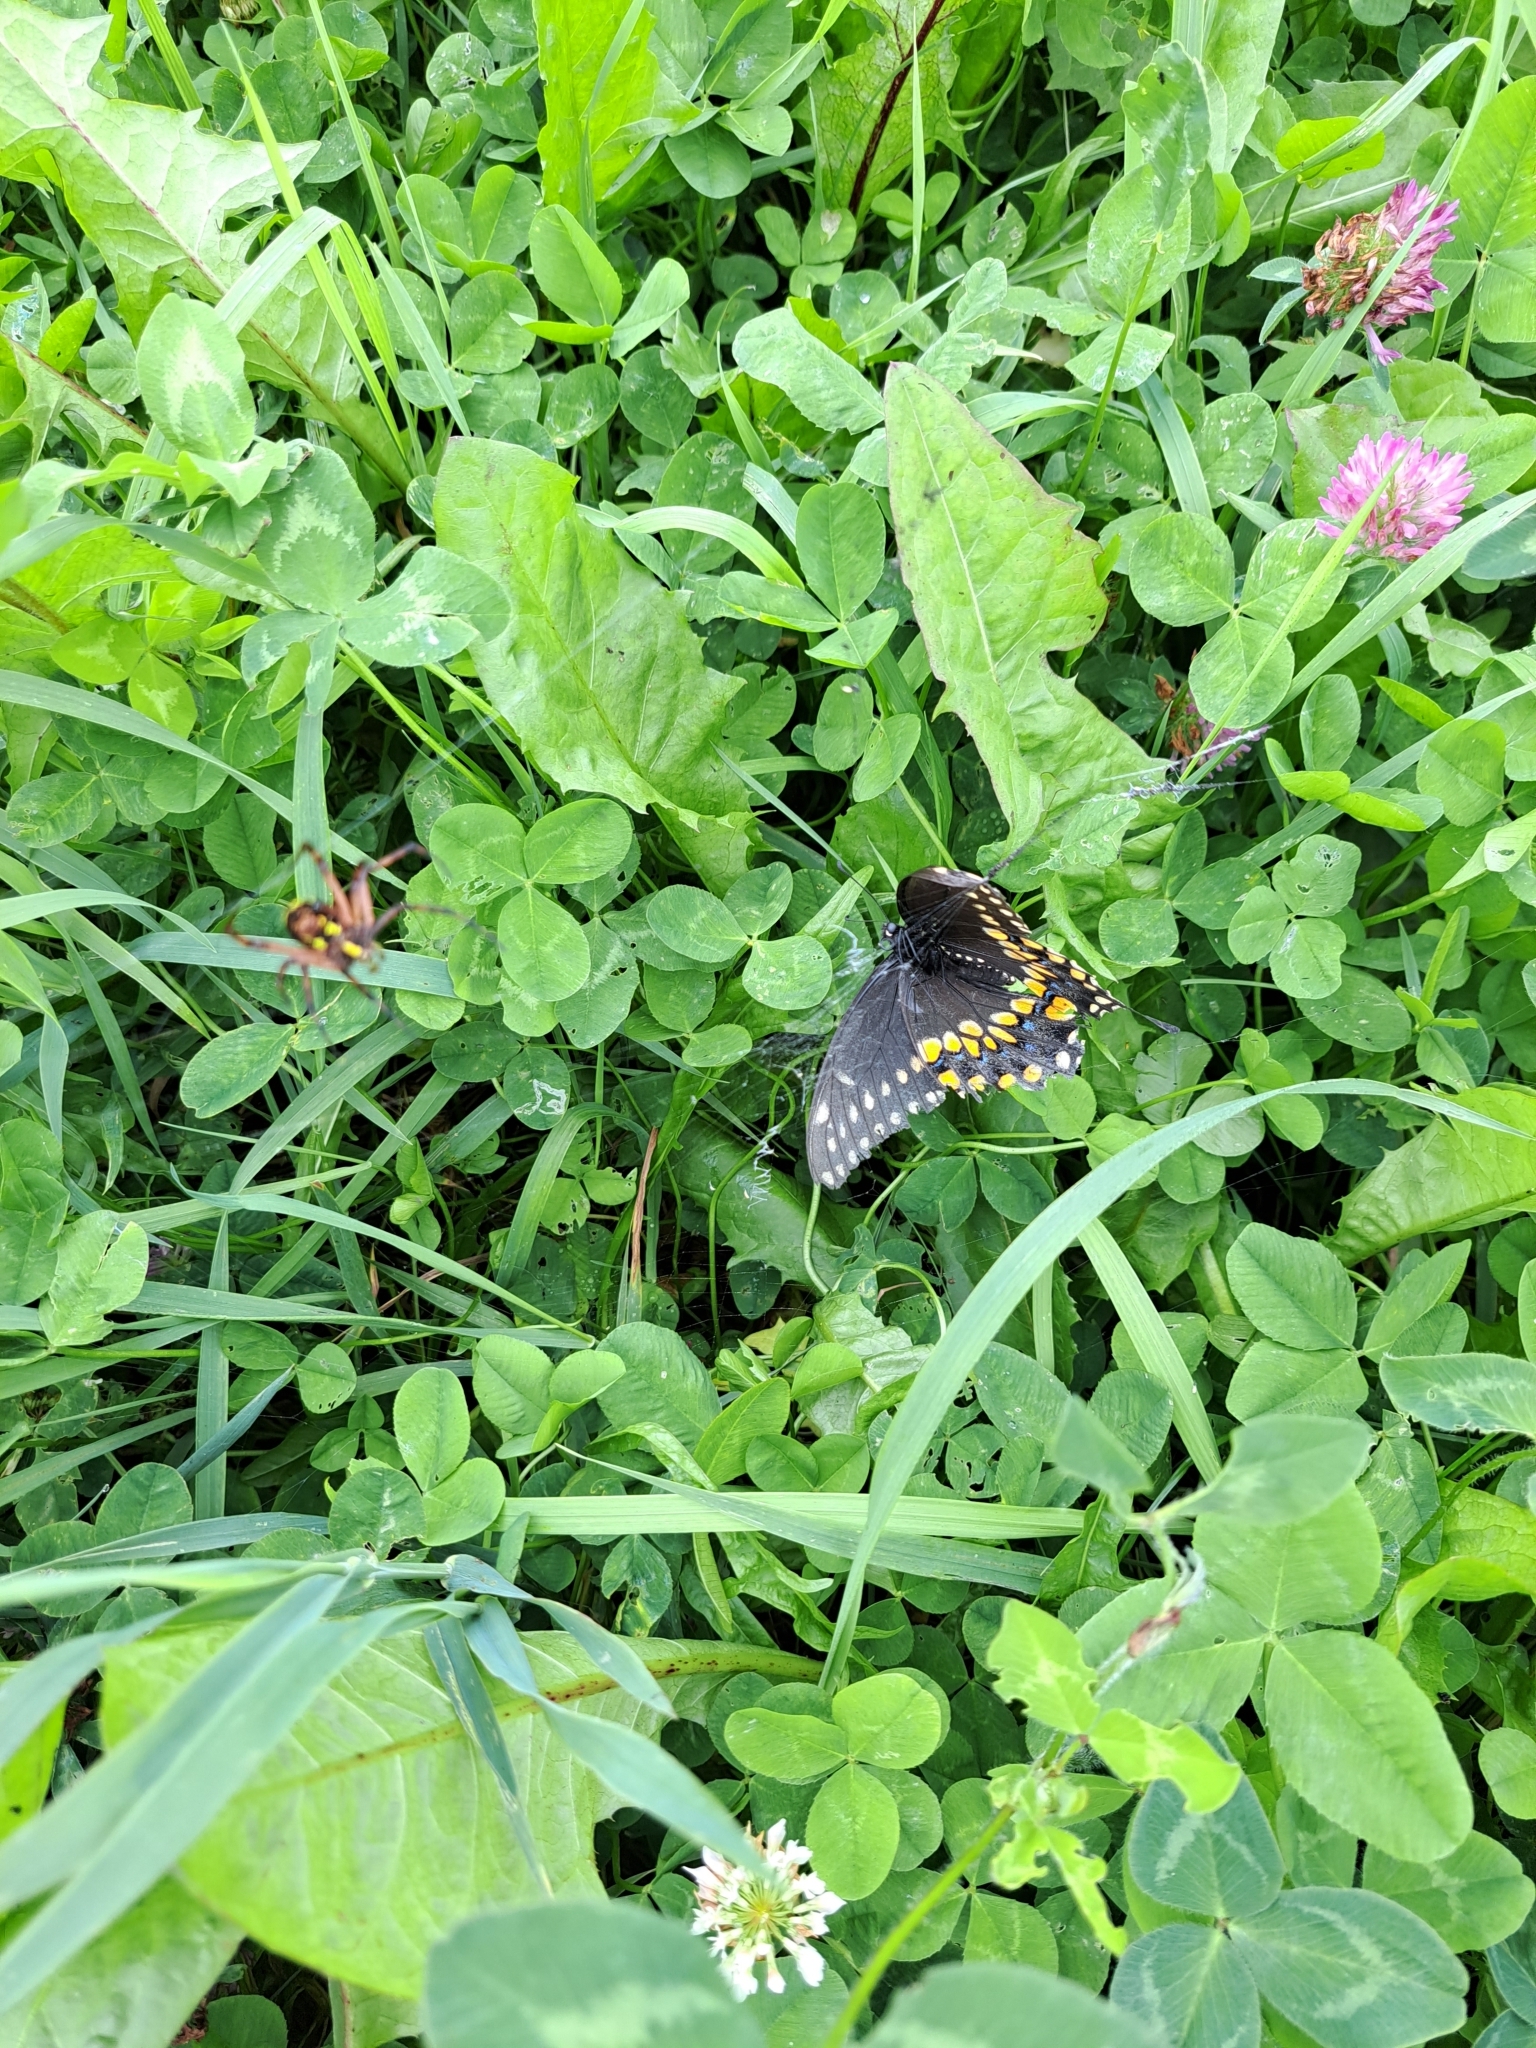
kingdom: Animalia
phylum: Arthropoda
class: Insecta
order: Lepidoptera
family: Papilionidae
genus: Papilio
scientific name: Papilio polyxenes
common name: Black swallowtail
